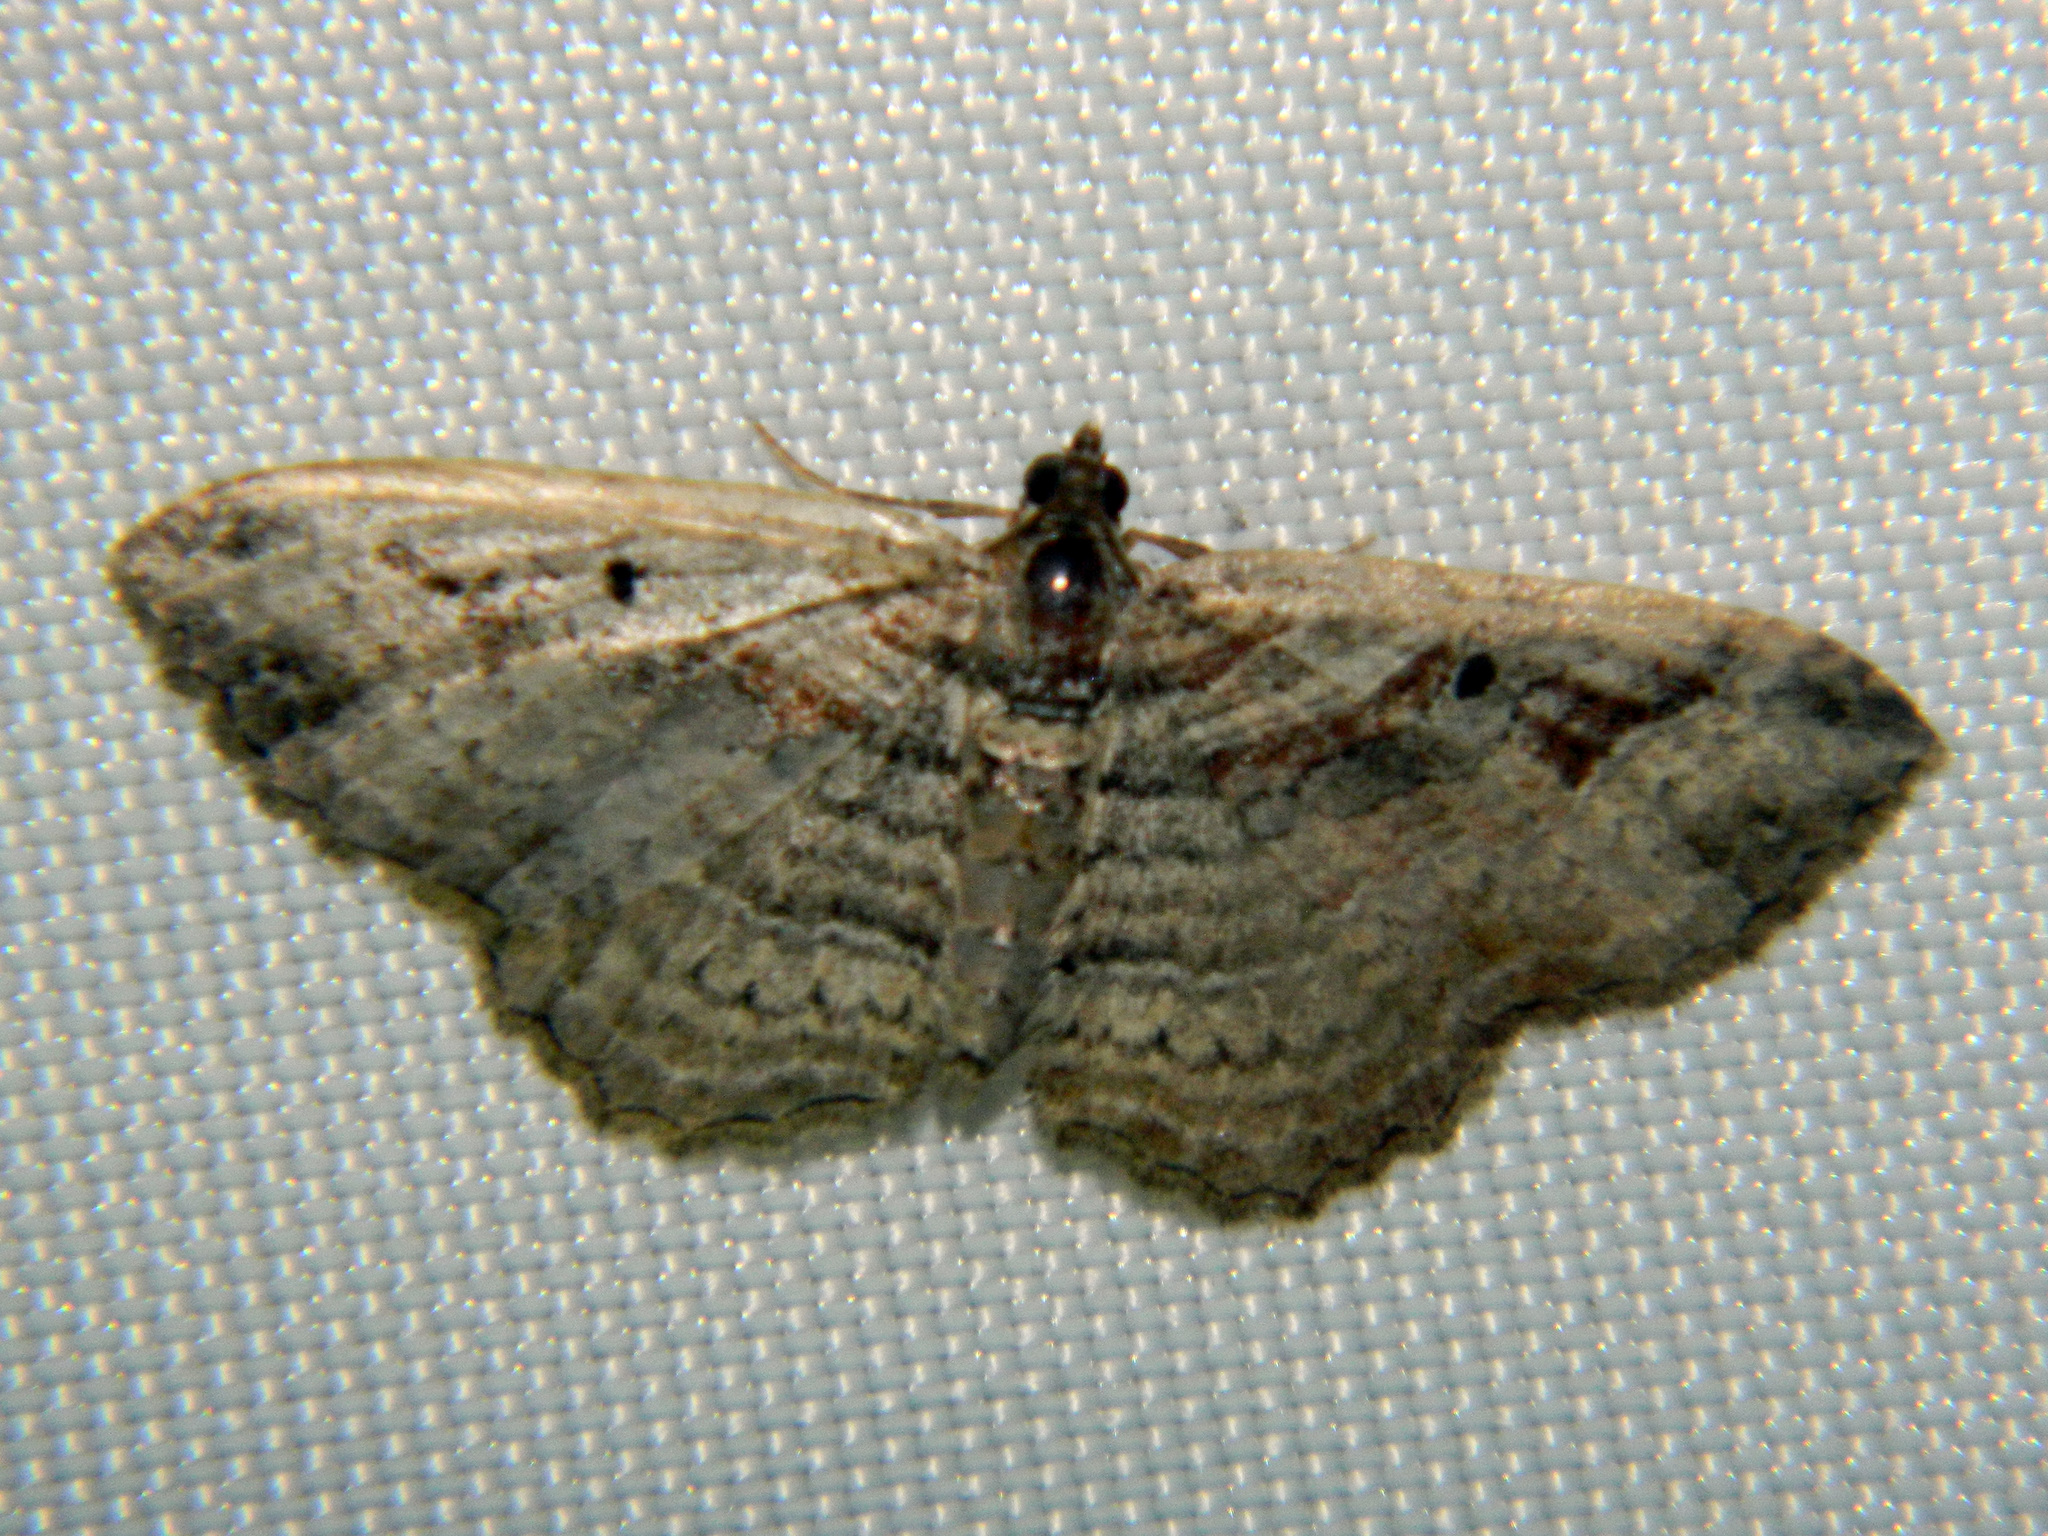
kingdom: Animalia
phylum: Arthropoda
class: Insecta
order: Lepidoptera
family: Geometridae
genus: Costaconvexa
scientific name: Costaconvexa centrostrigaria
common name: Bent-line carpet
